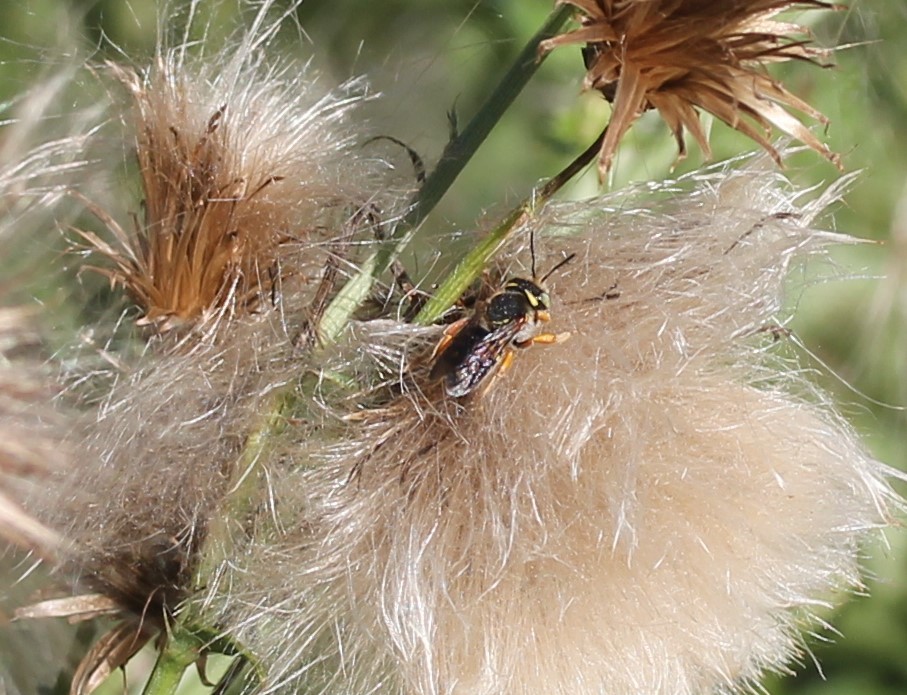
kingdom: Animalia
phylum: Arthropoda
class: Insecta
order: Hymenoptera
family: Megachilidae
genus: Anthidium
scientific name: Anthidium oblongatum
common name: Oblong wool carder bee
